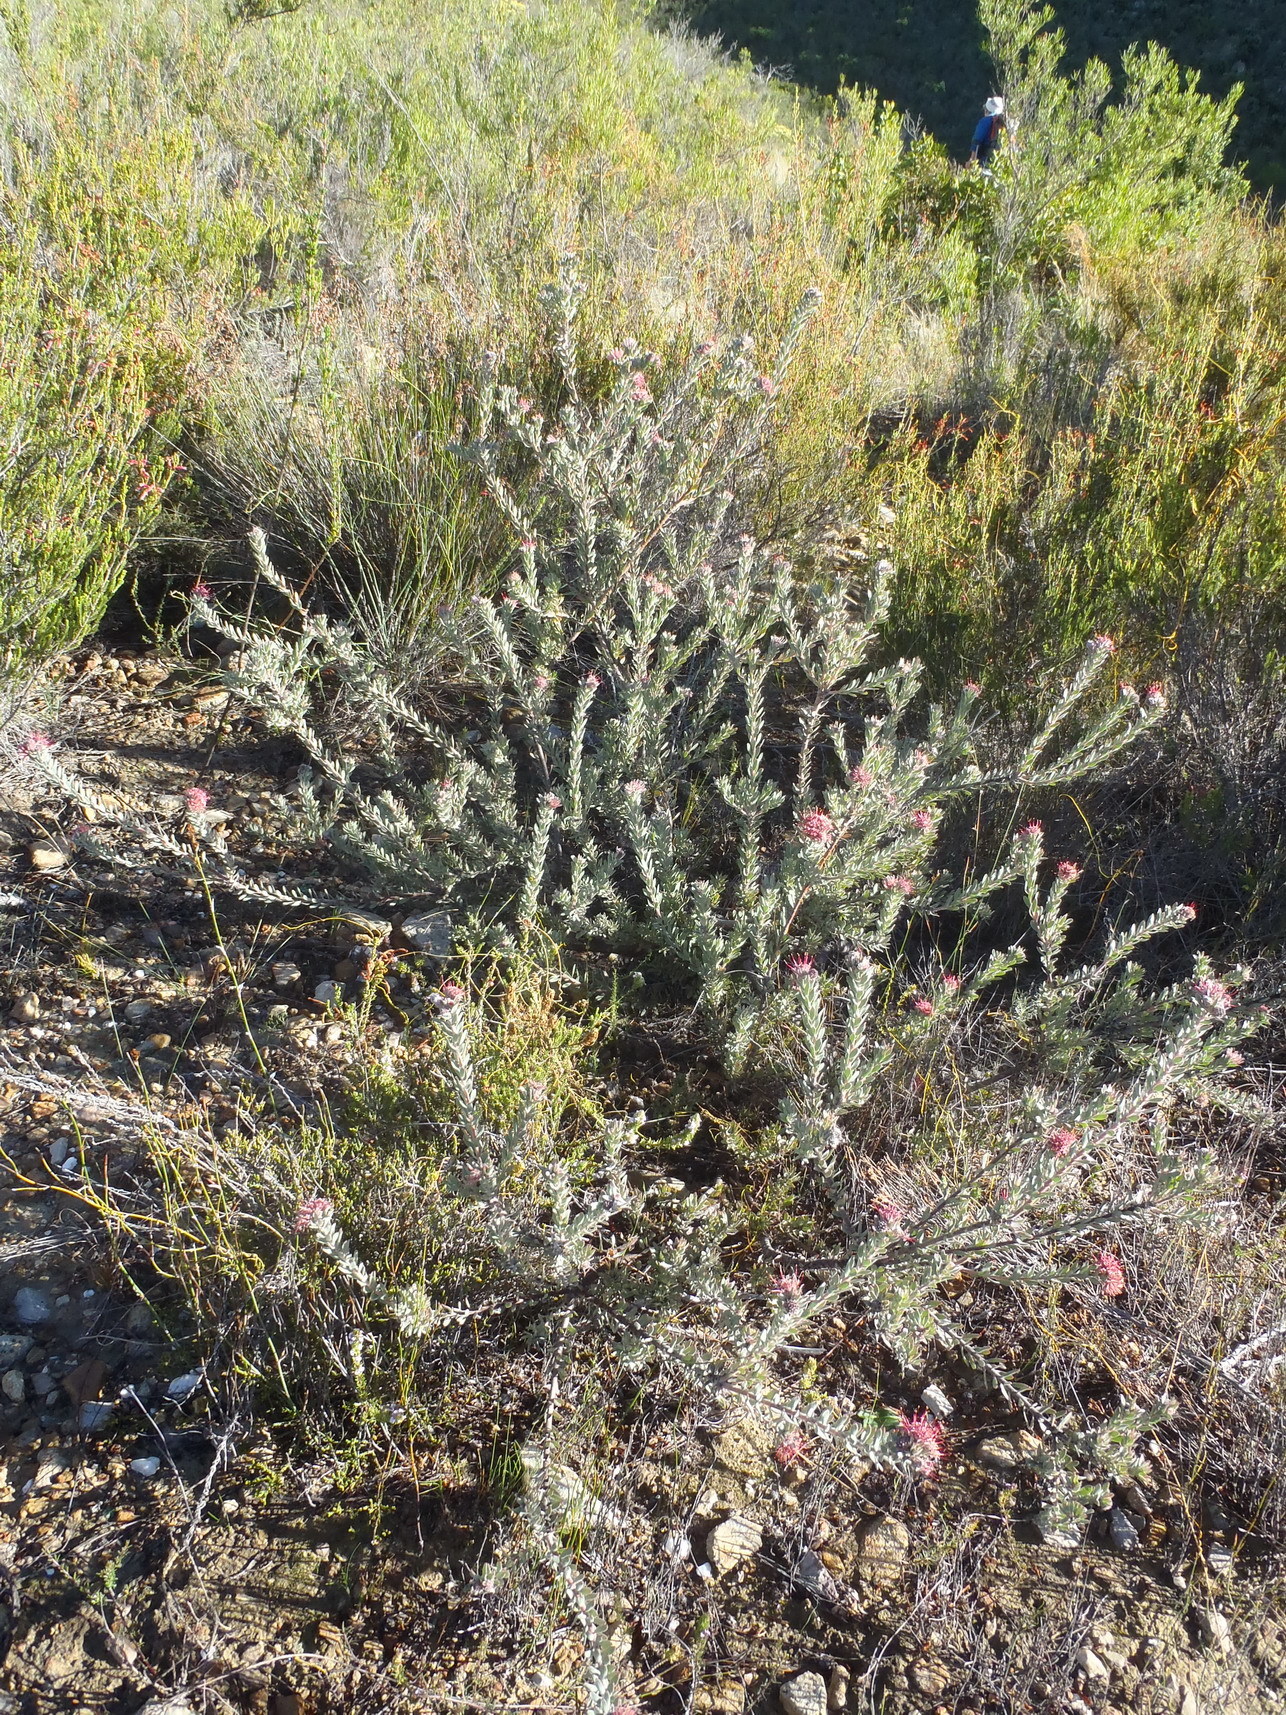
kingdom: Plantae
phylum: Tracheophyta
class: Magnoliopsida
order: Proteales
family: Proteaceae
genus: Leucospermum
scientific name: Leucospermum wittebergense
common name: Swartberg pincushion
